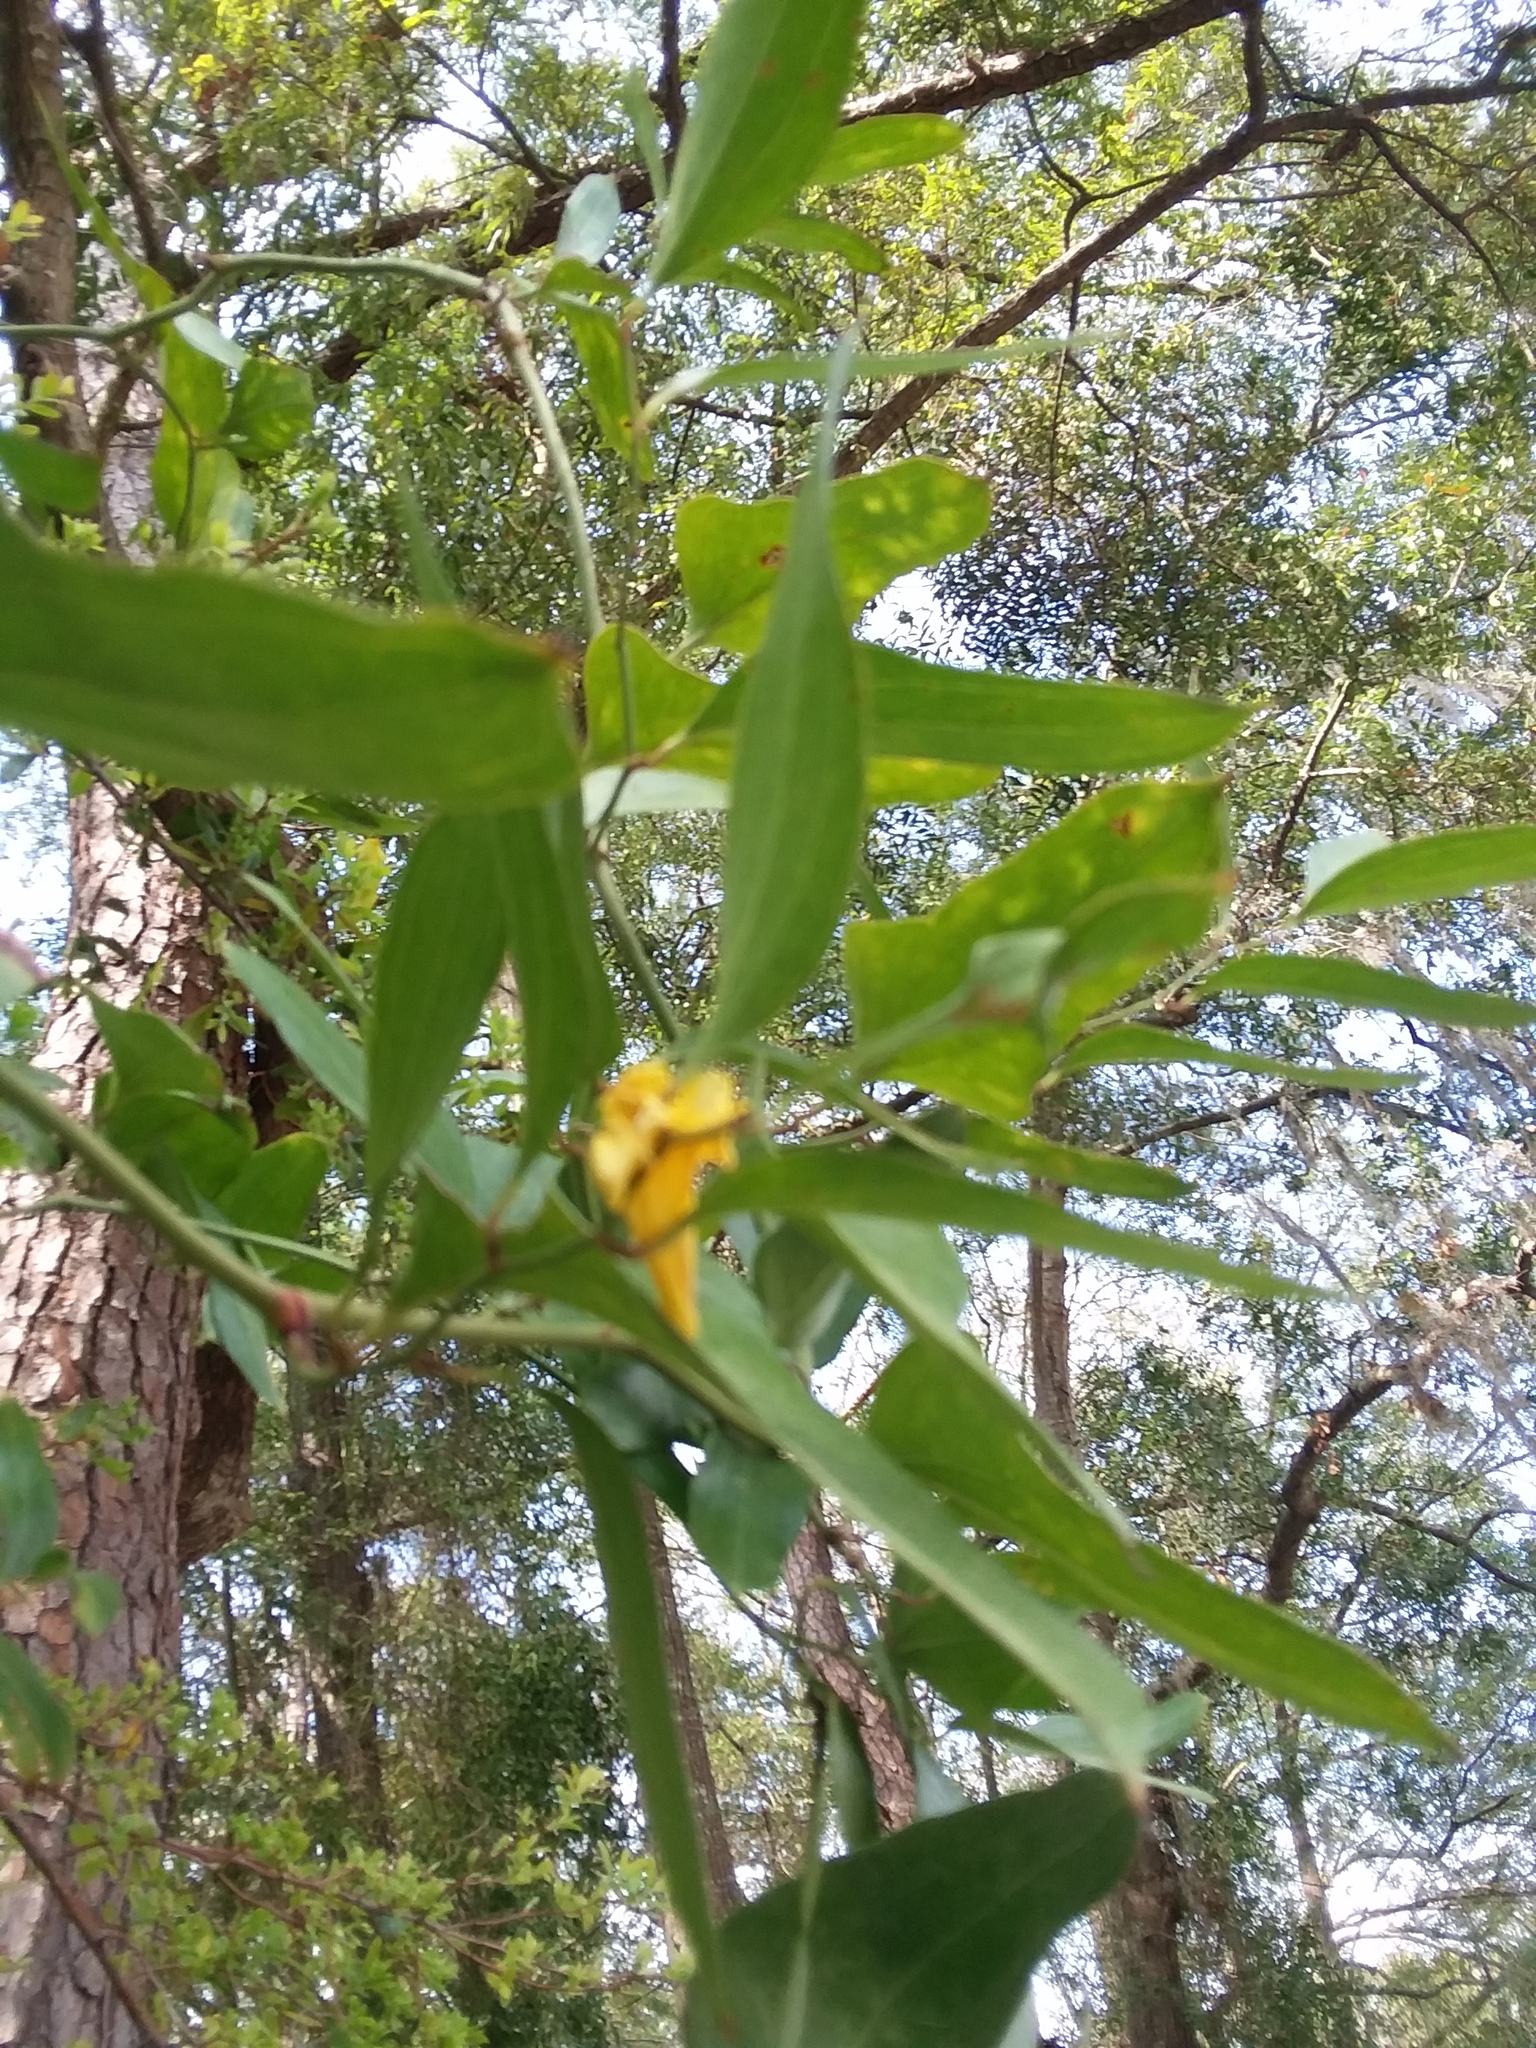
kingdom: Plantae
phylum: Tracheophyta
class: Magnoliopsida
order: Gentianales
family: Gelsemiaceae
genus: Gelsemium
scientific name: Gelsemium sempervirens
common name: Carolina-jasmine
